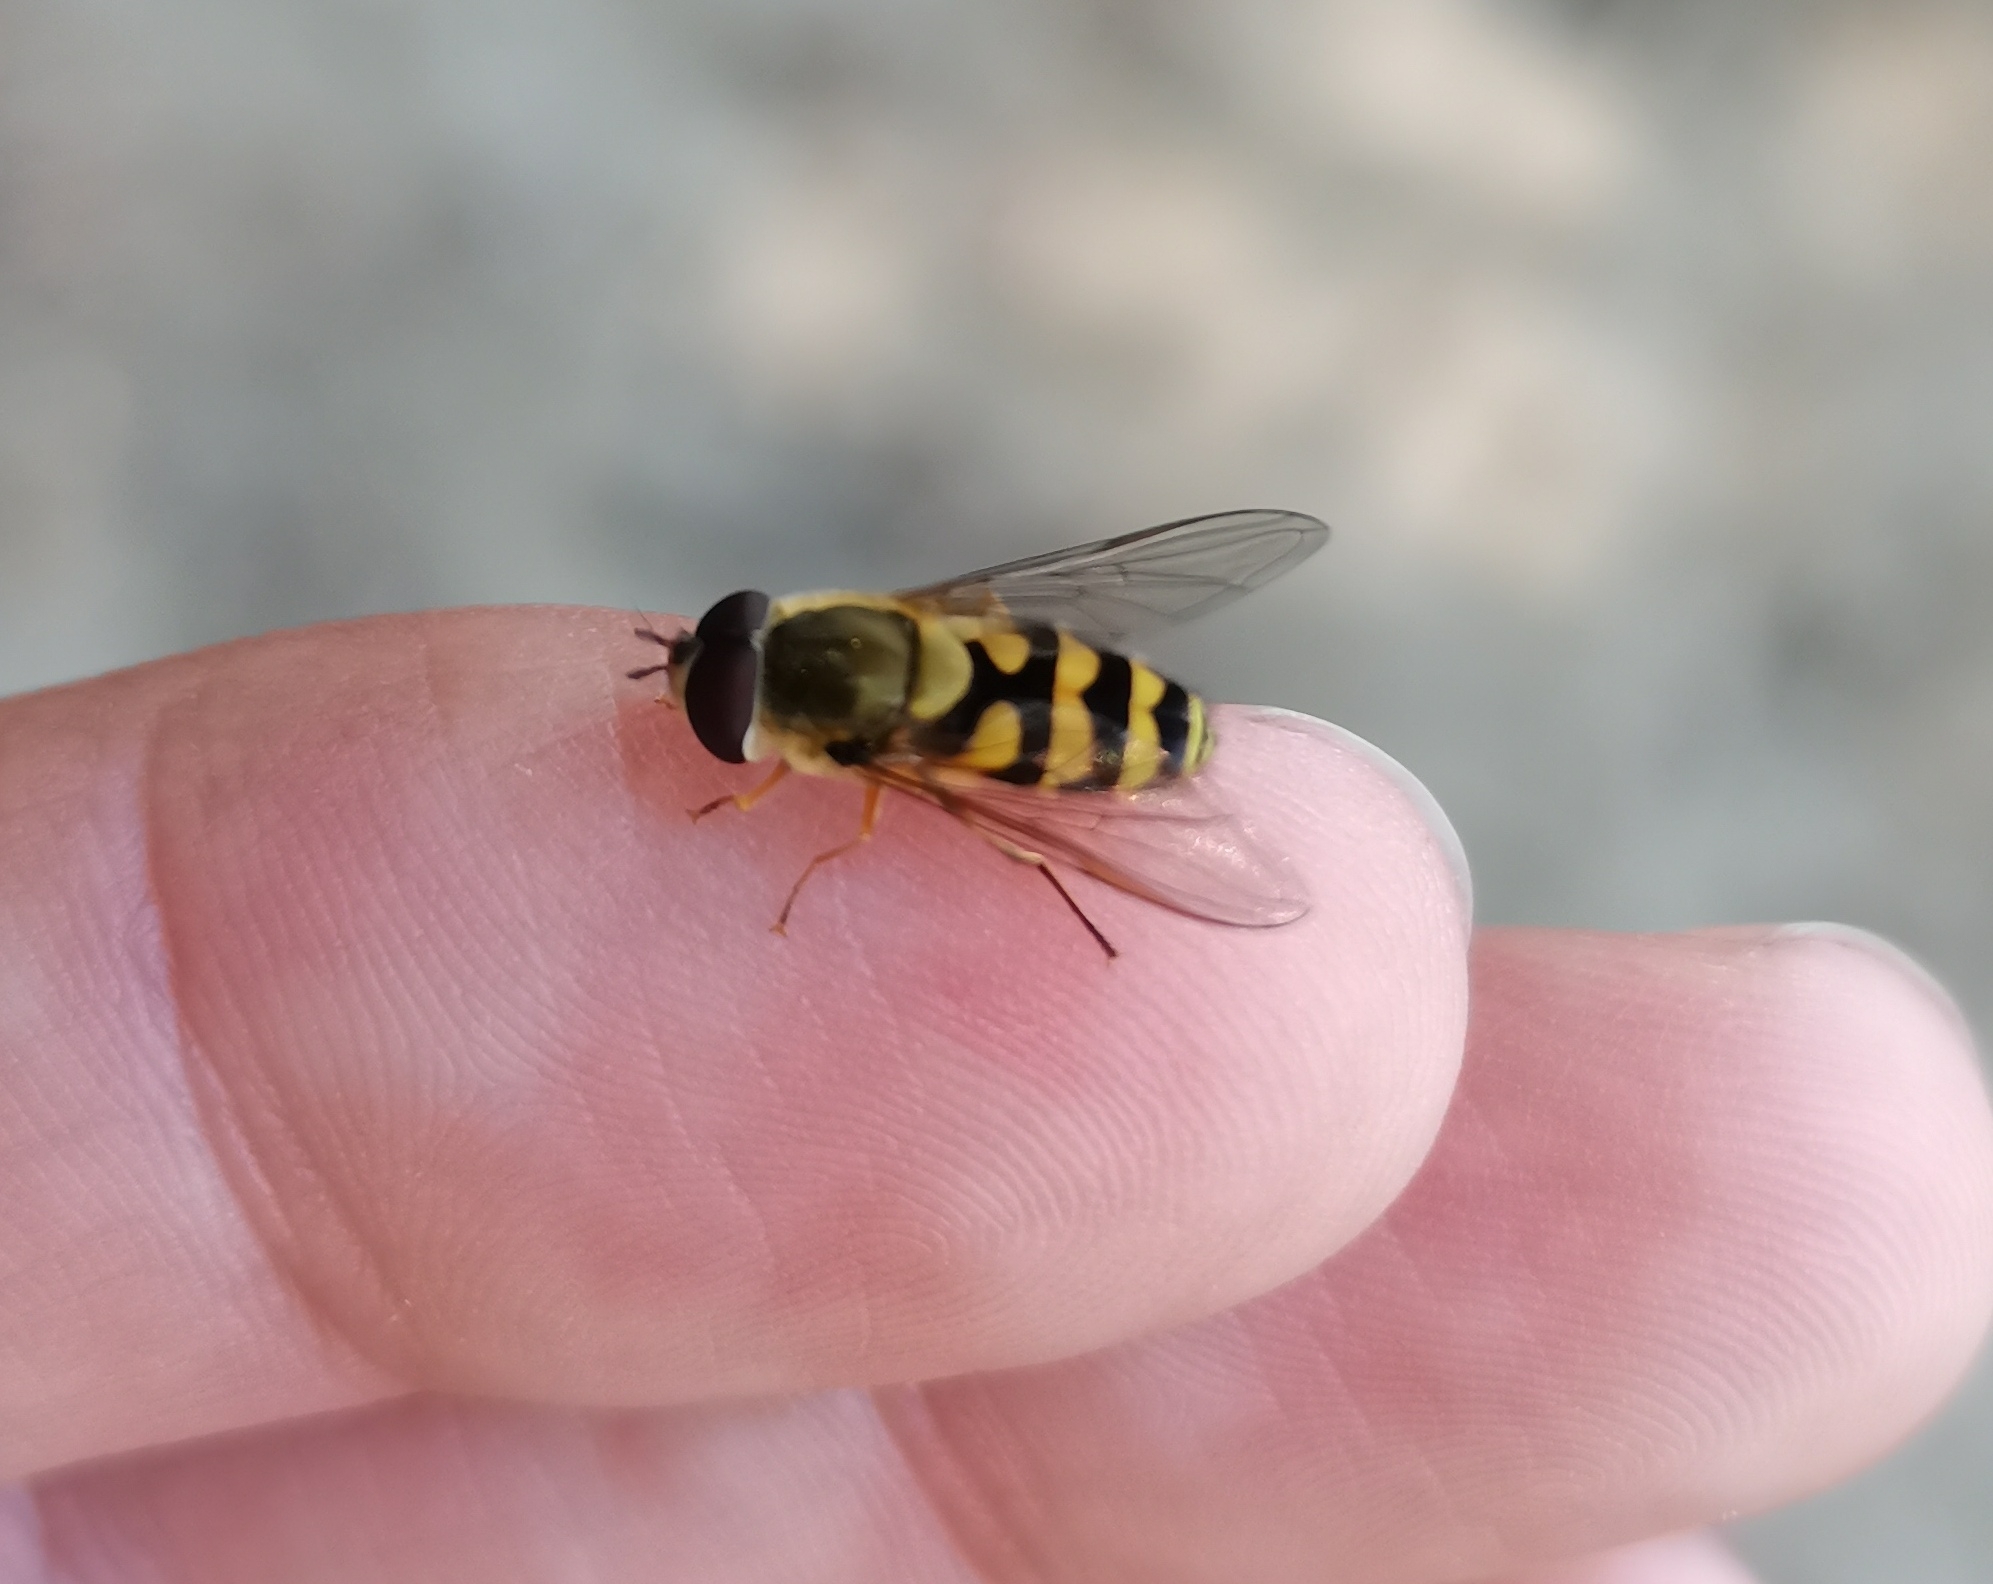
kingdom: Animalia
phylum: Arthropoda
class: Insecta
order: Diptera
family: Syrphidae
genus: Syrphus
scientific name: Syrphus
